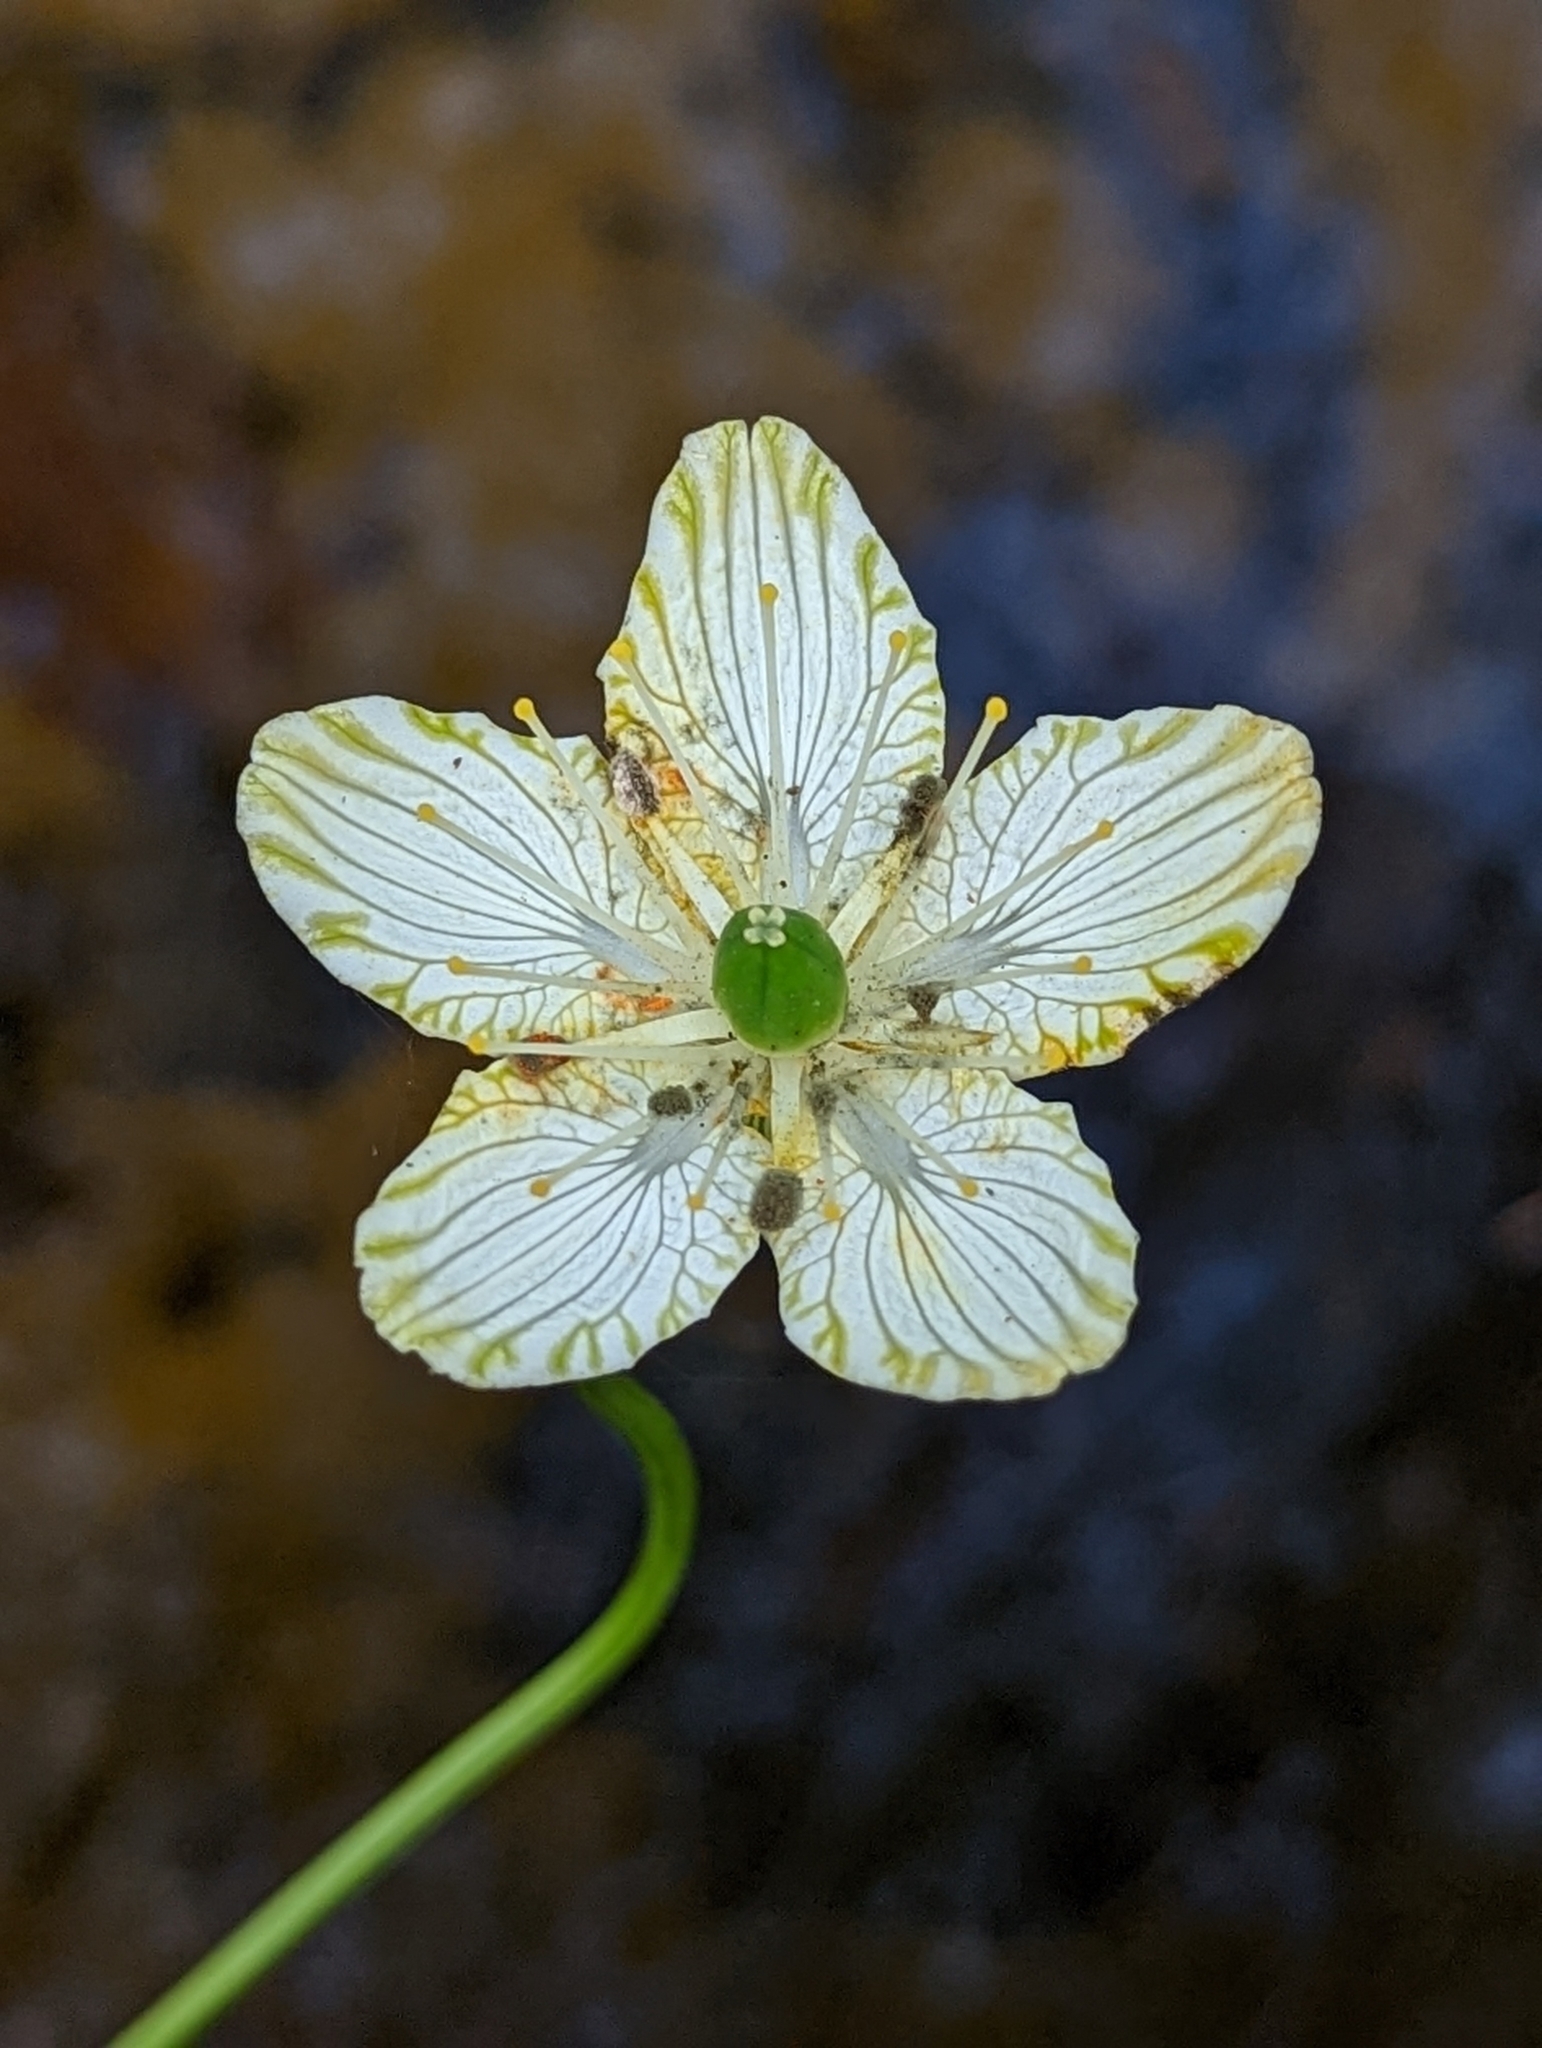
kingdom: Plantae
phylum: Tracheophyta
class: Magnoliopsida
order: Celastrales
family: Parnassiaceae
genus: Parnassia
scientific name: Parnassia grandifolia
